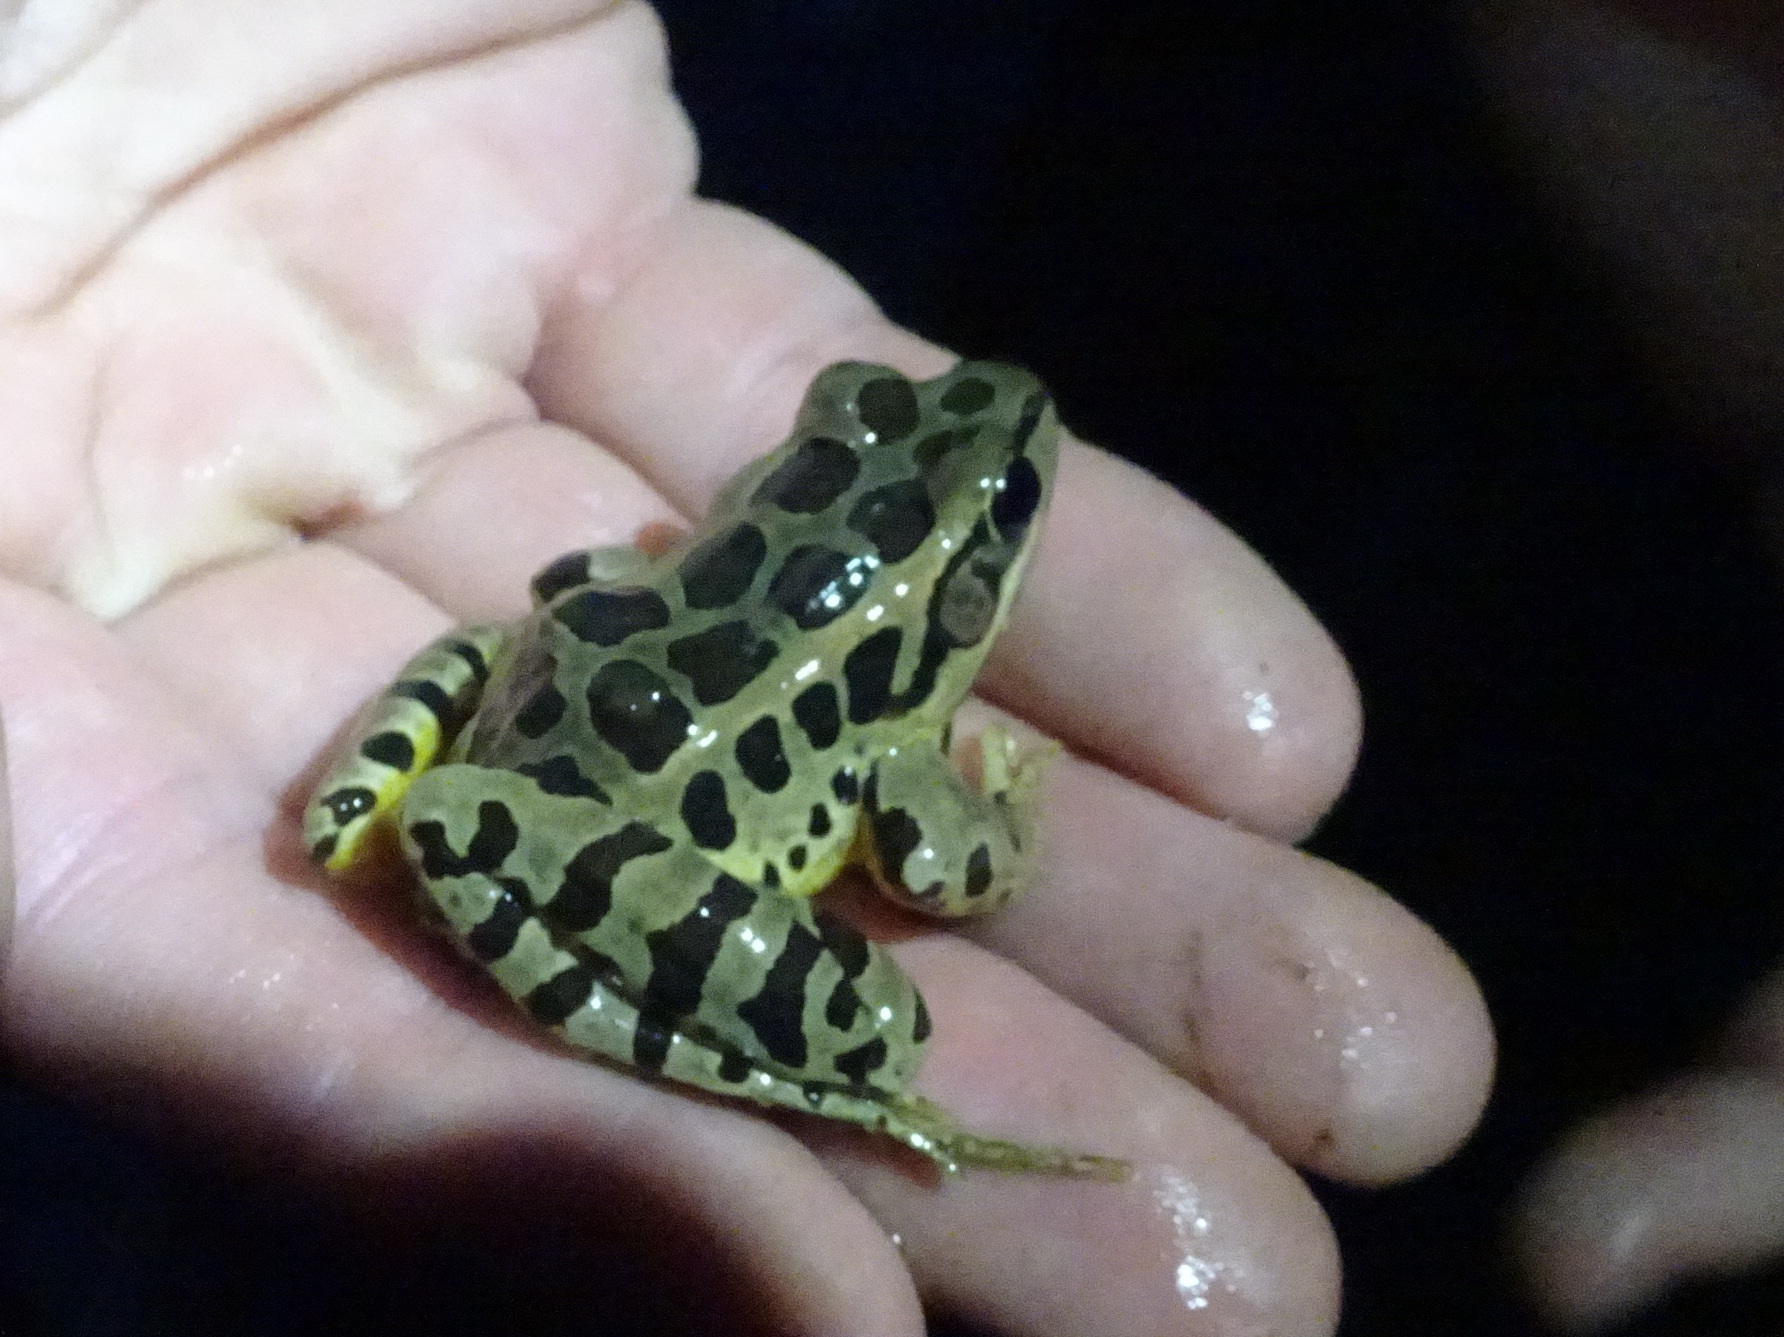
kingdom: Animalia
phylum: Chordata
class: Amphibia
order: Anura
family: Ranidae
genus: Lithobates
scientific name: Lithobates palustris
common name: Pickerel frog
